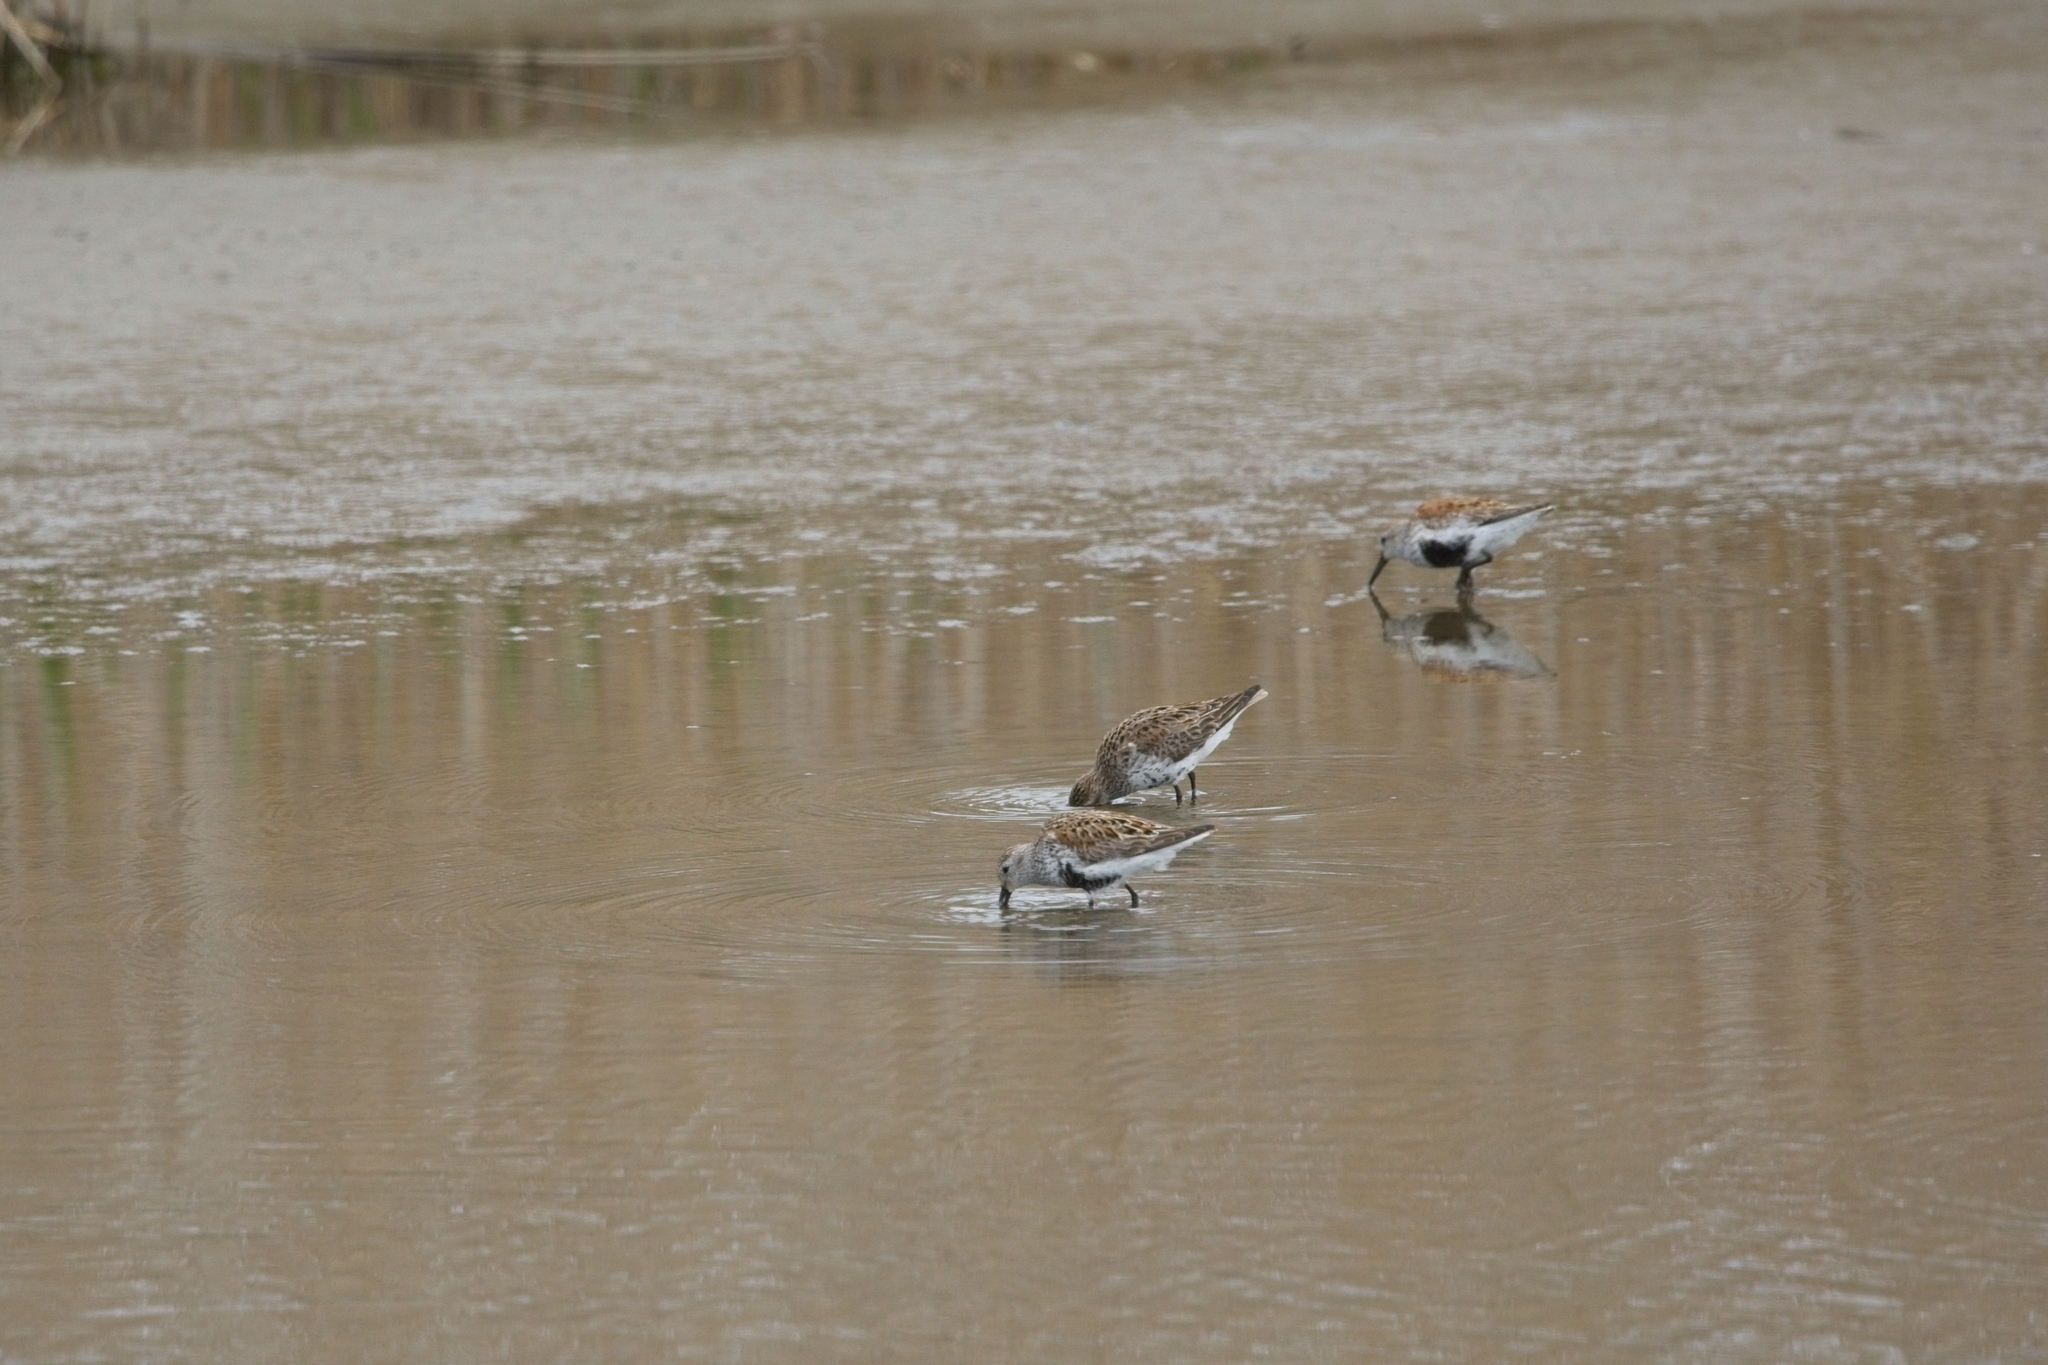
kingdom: Animalia
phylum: Chordata
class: Aves
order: Charadriiformes
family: Scolopacidae
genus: Calidris
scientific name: Calidris alpina
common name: Dunlin
